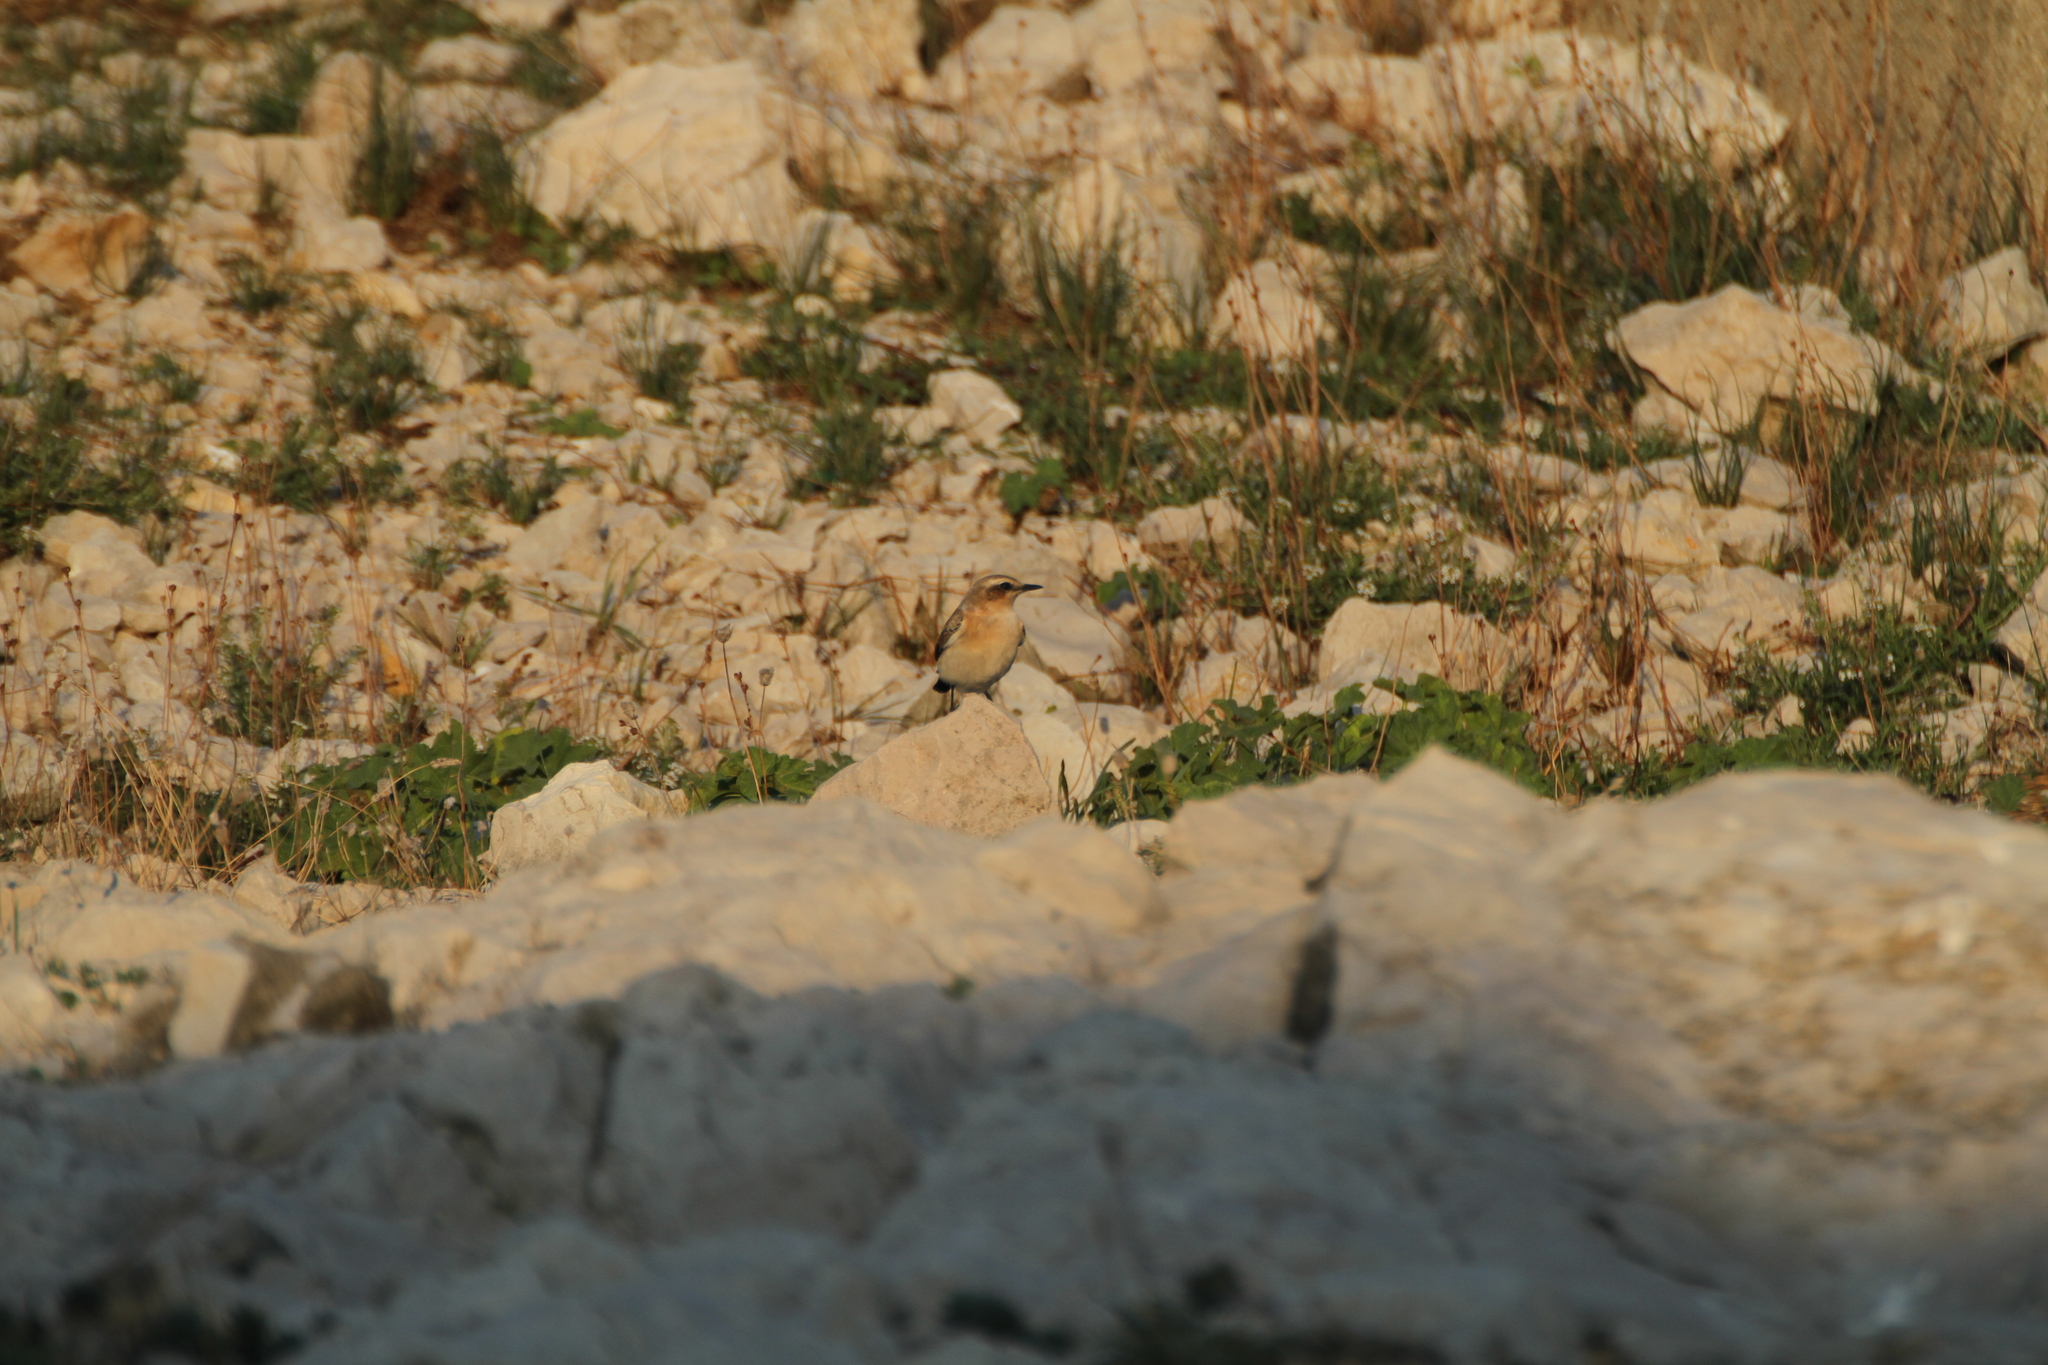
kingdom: Animalia
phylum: Chordata
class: Aves
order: Passeriformes
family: Muscicapidae
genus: Oenanthe
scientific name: Oenanthe oenanthe
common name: Northern wheatear
